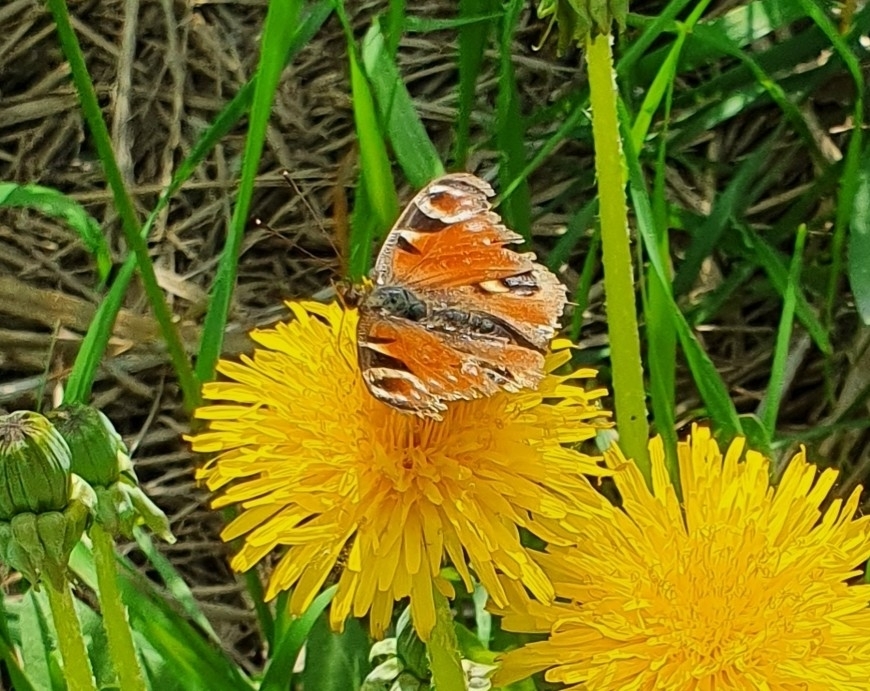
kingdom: Animalia
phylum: Arthropoda
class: Insecta
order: Lepidoptera
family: Nymphalidae
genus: Aglais
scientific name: Aglais io
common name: Peacock
